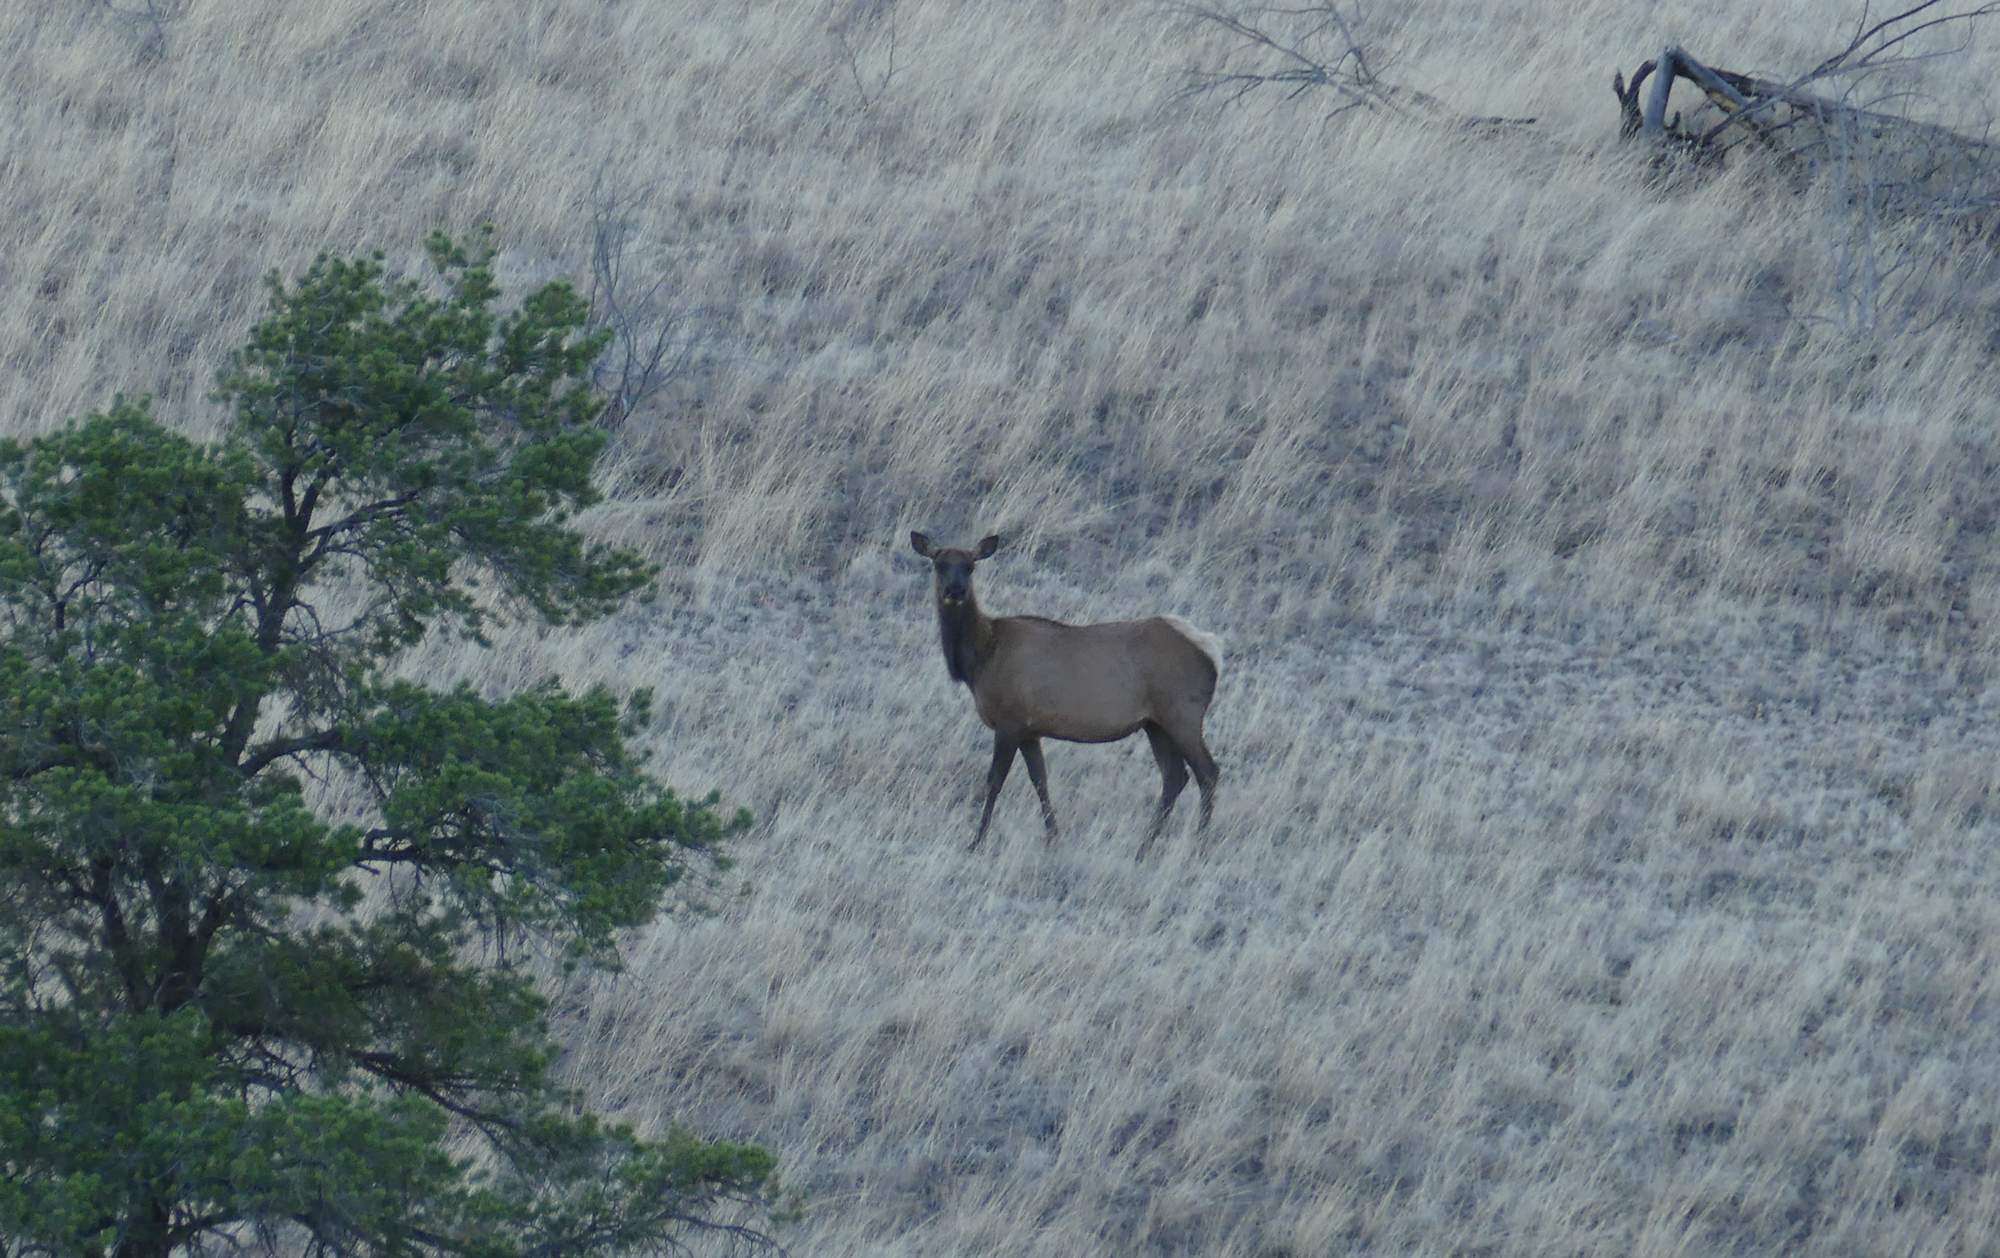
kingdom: Animalia
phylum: Chordata
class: Mammalia
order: Artiodactyla
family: Cervidae
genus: Cervus
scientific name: Cervus elaphus
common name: Red deer
